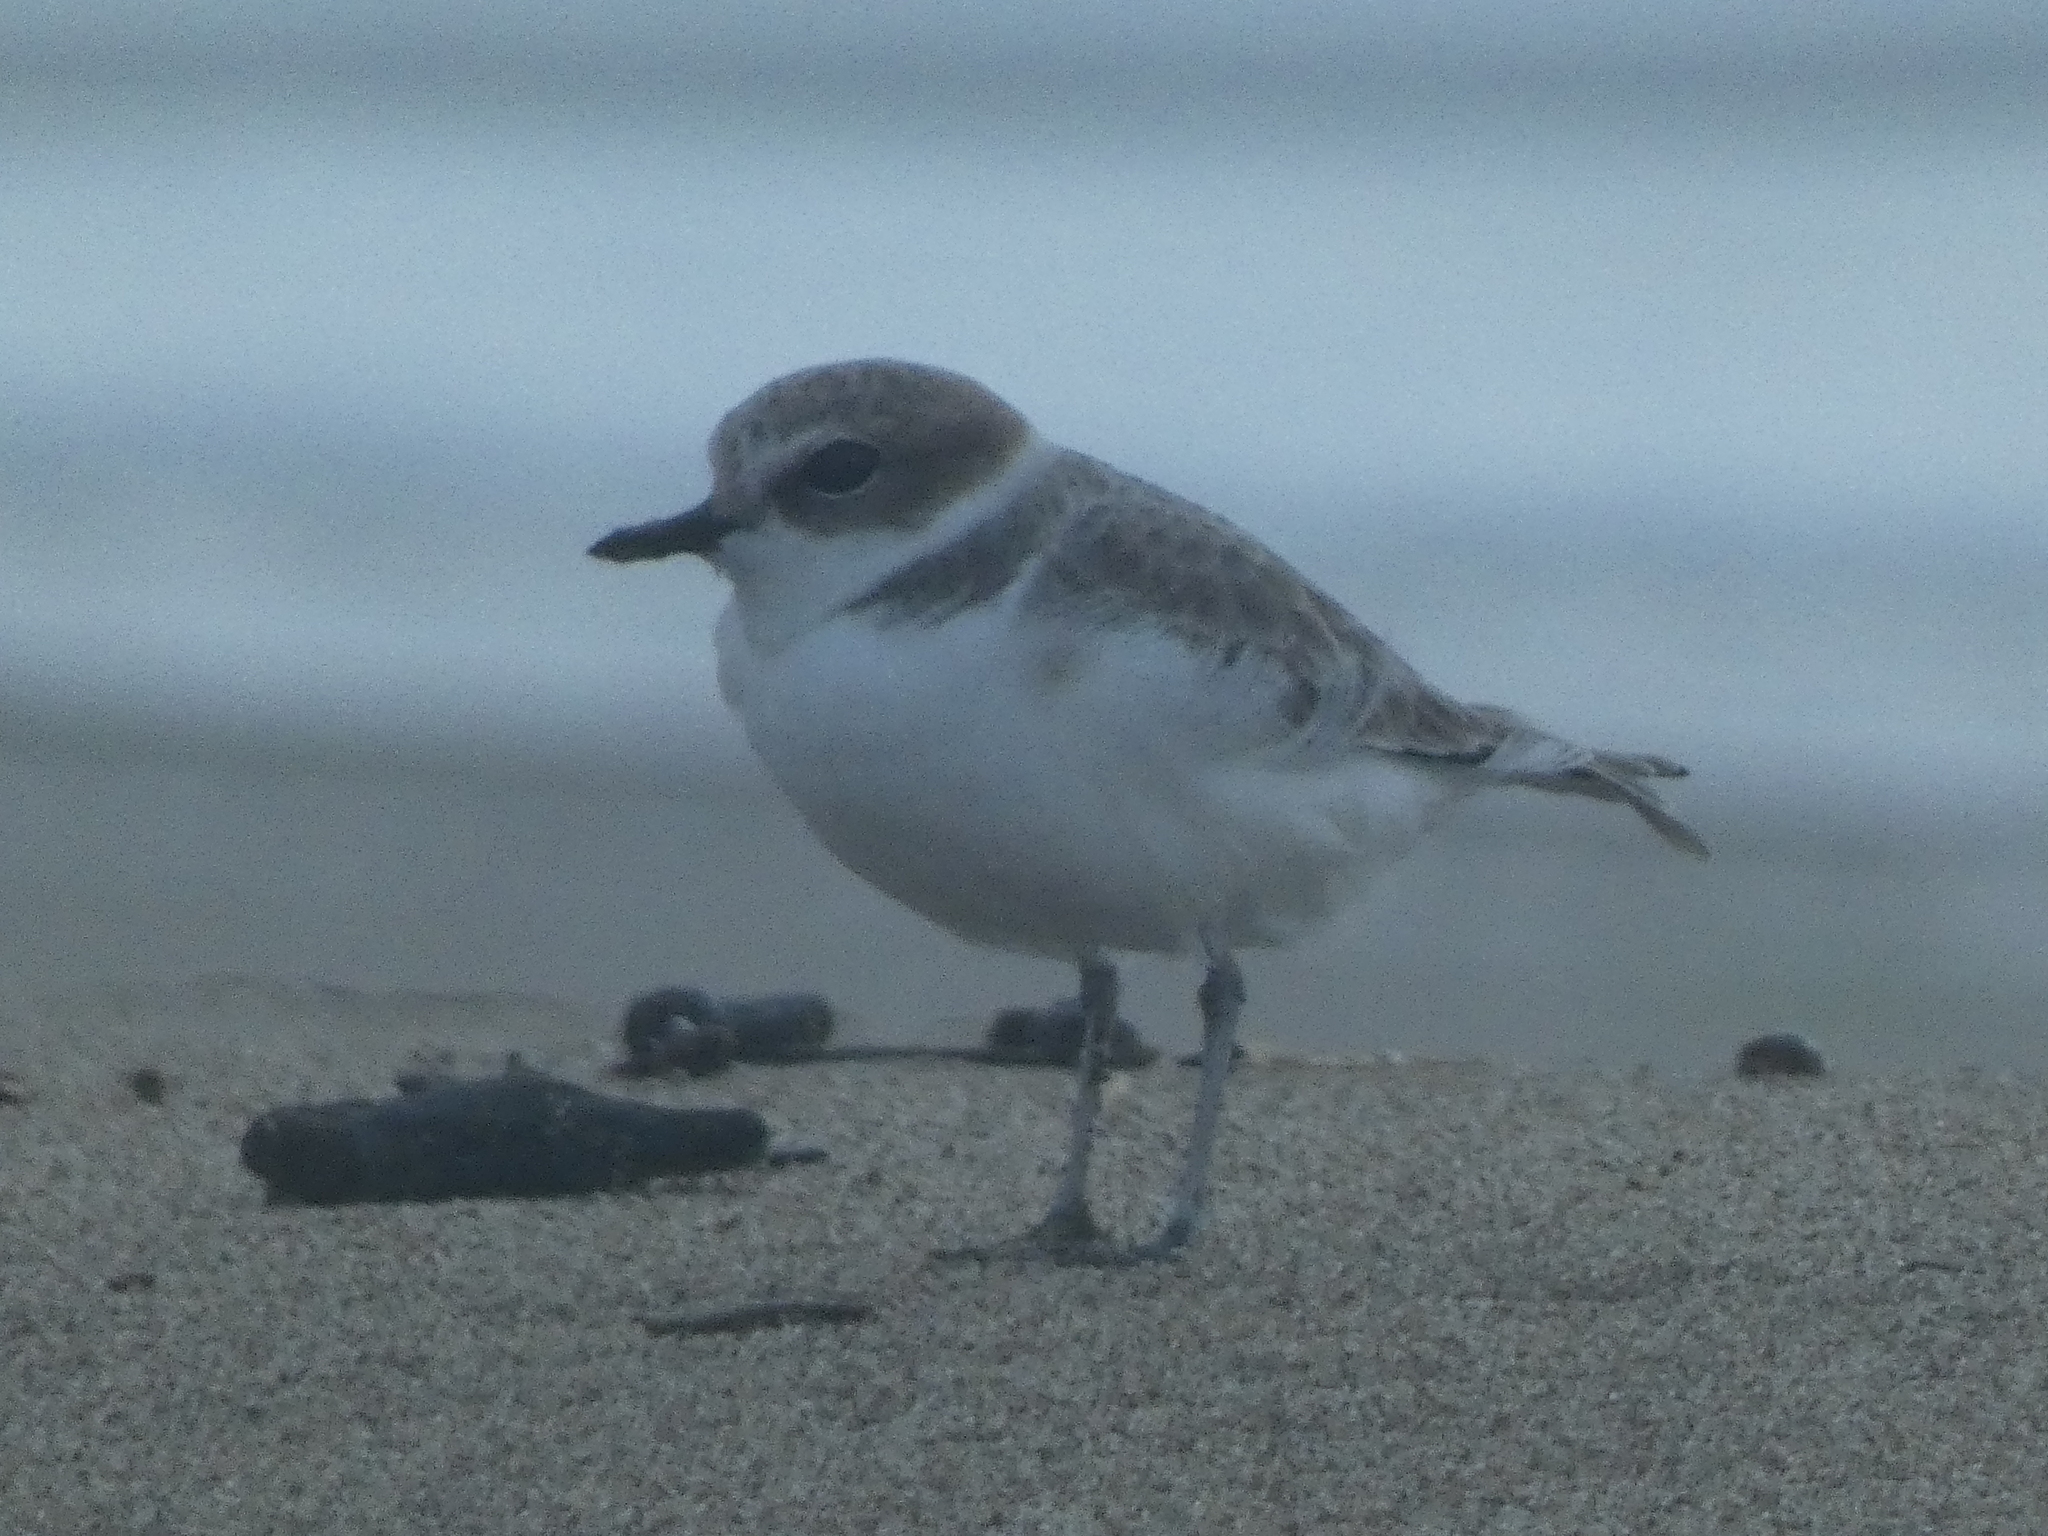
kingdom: Animalia
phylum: Chordata
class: Aves
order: Charadriiformes
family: Charadriidae
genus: Anarhynchus
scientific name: Anarhynchus
